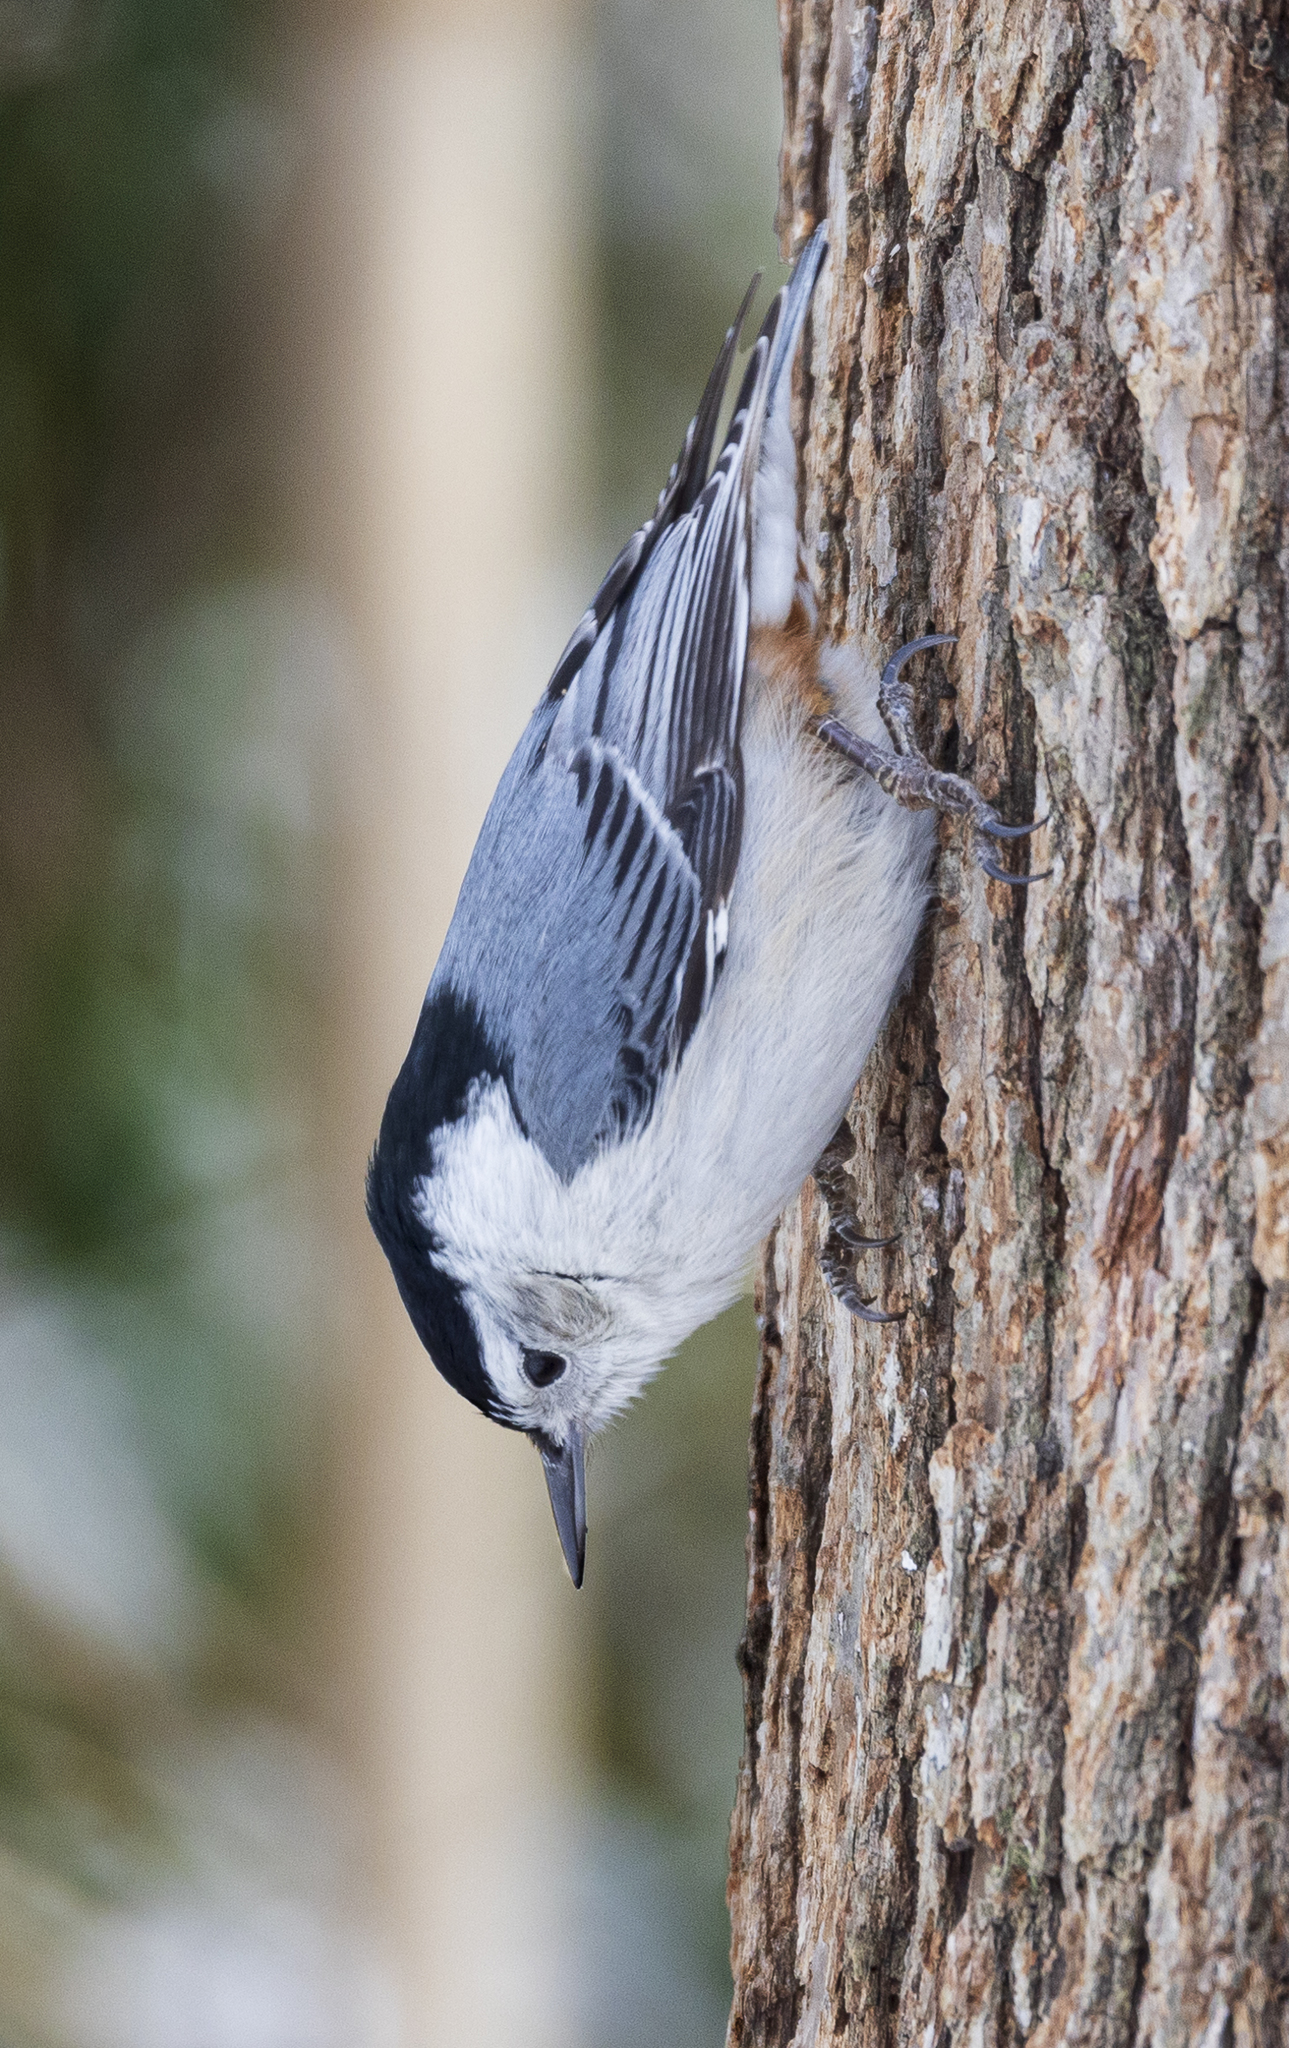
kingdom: Animalia
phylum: Chordata
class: Aves
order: Passeriformes
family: Sittidae
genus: Sitta
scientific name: Sitta carolinensis
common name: White-breasted nuthatch
